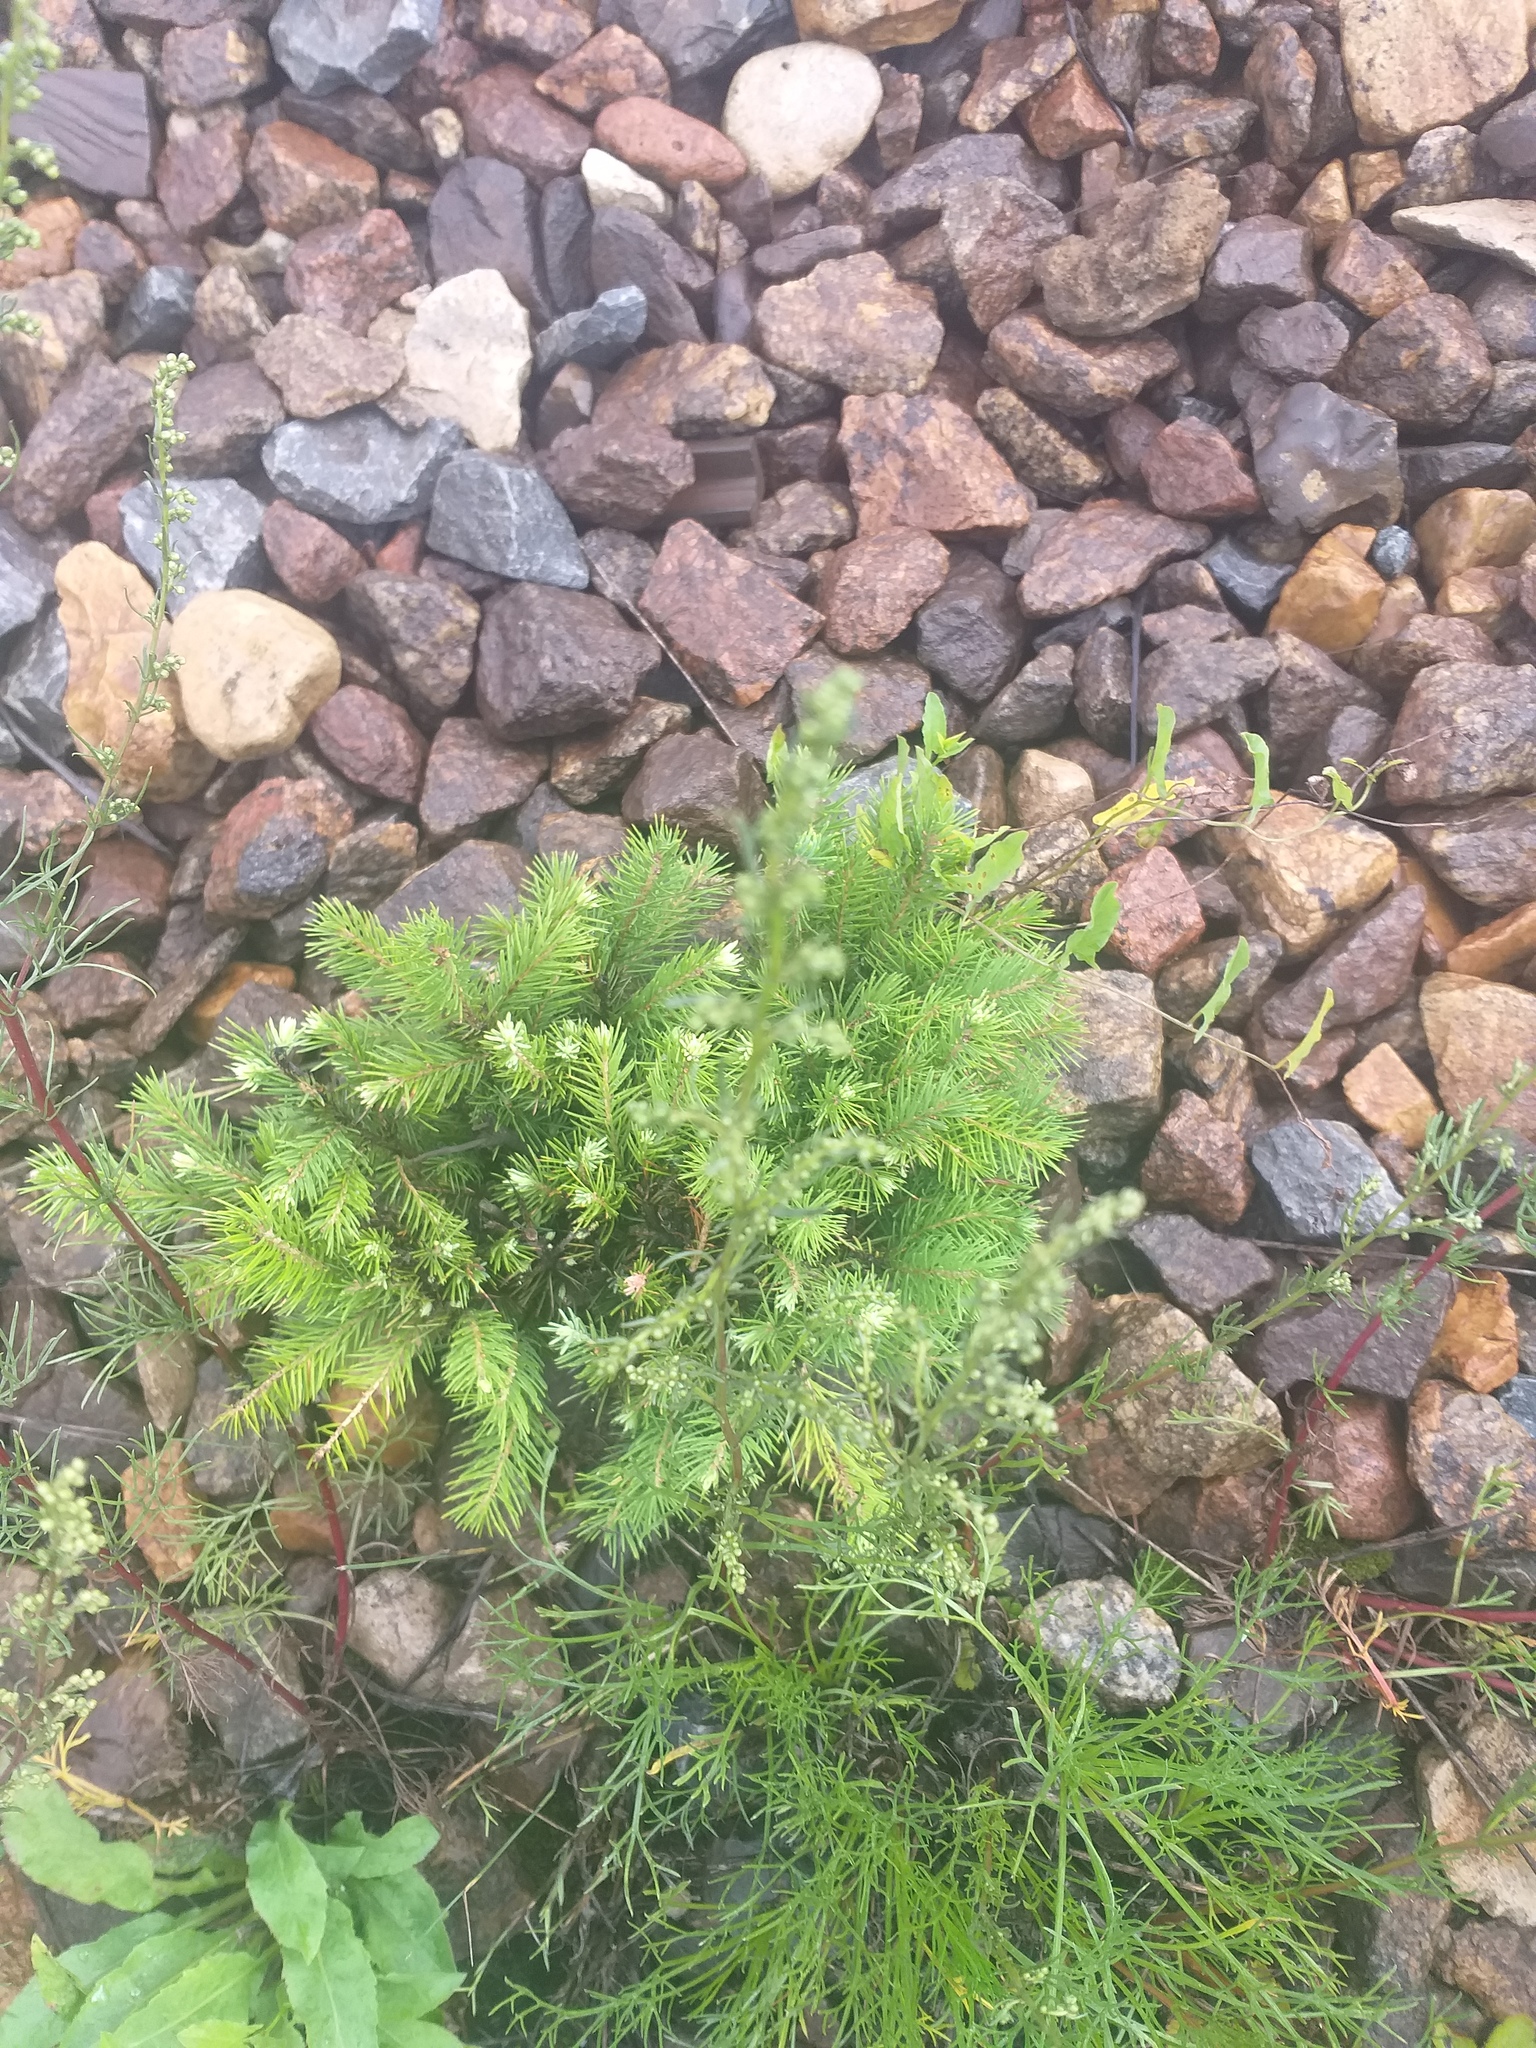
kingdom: Plantae
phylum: Tracheophyta
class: Pinopsida
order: Pinales
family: Pinaceae
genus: Picea
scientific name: Picea abies
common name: Norway spruce
